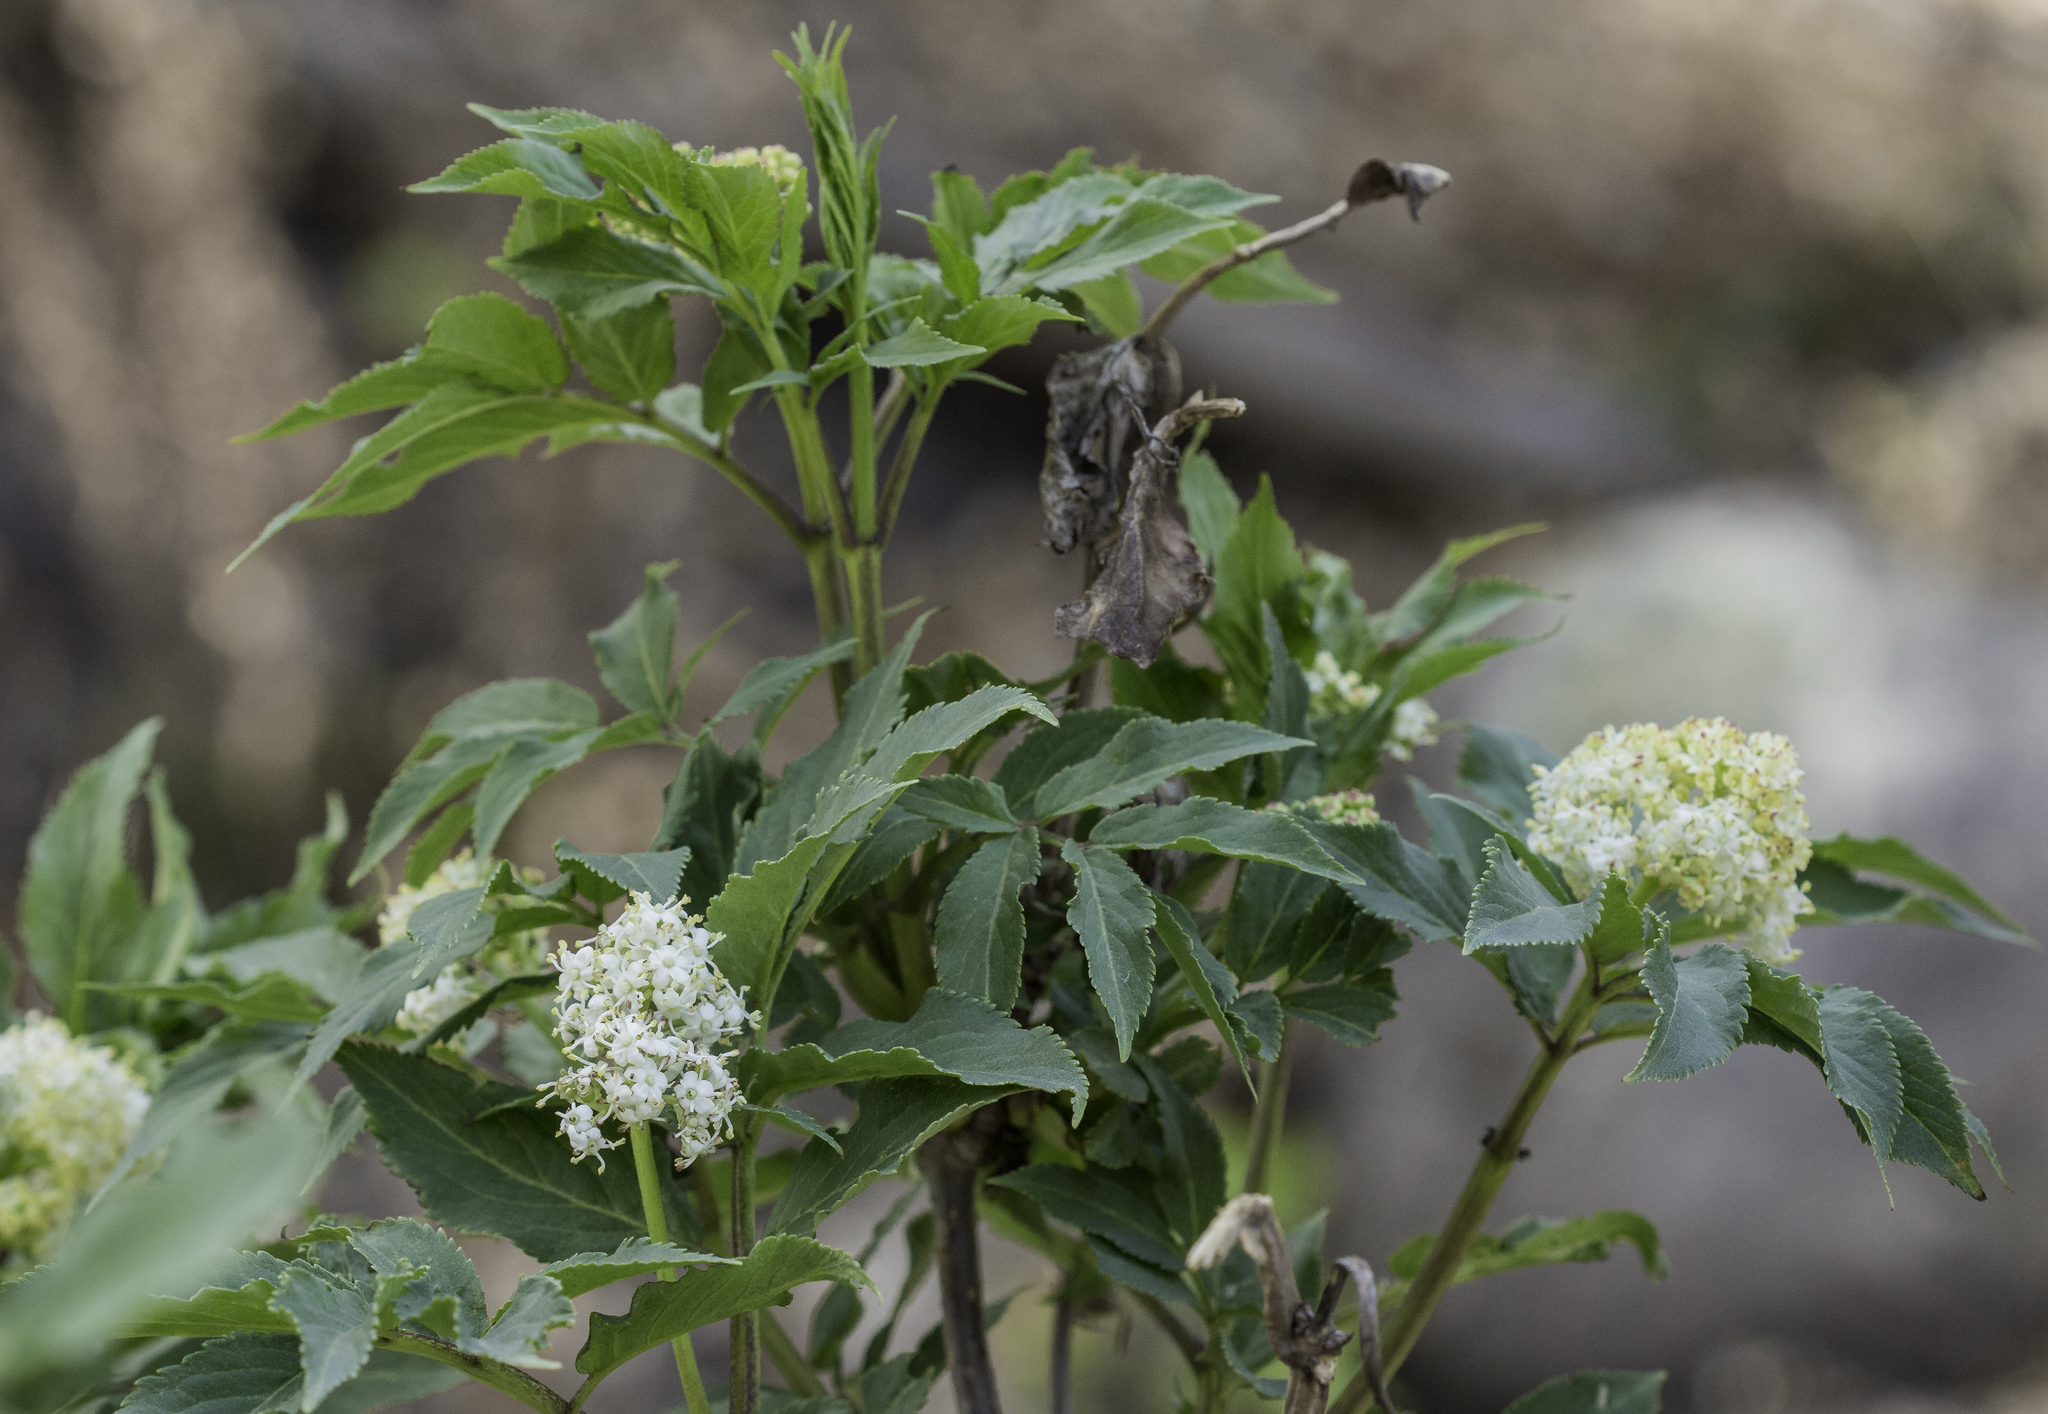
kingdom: Plantae
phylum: Tracheophyta
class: Magnoliopsida
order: Dipsacales
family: Viburnaceae
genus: Sambucus
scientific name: Sambucus racemosa
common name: Red-berried elder
